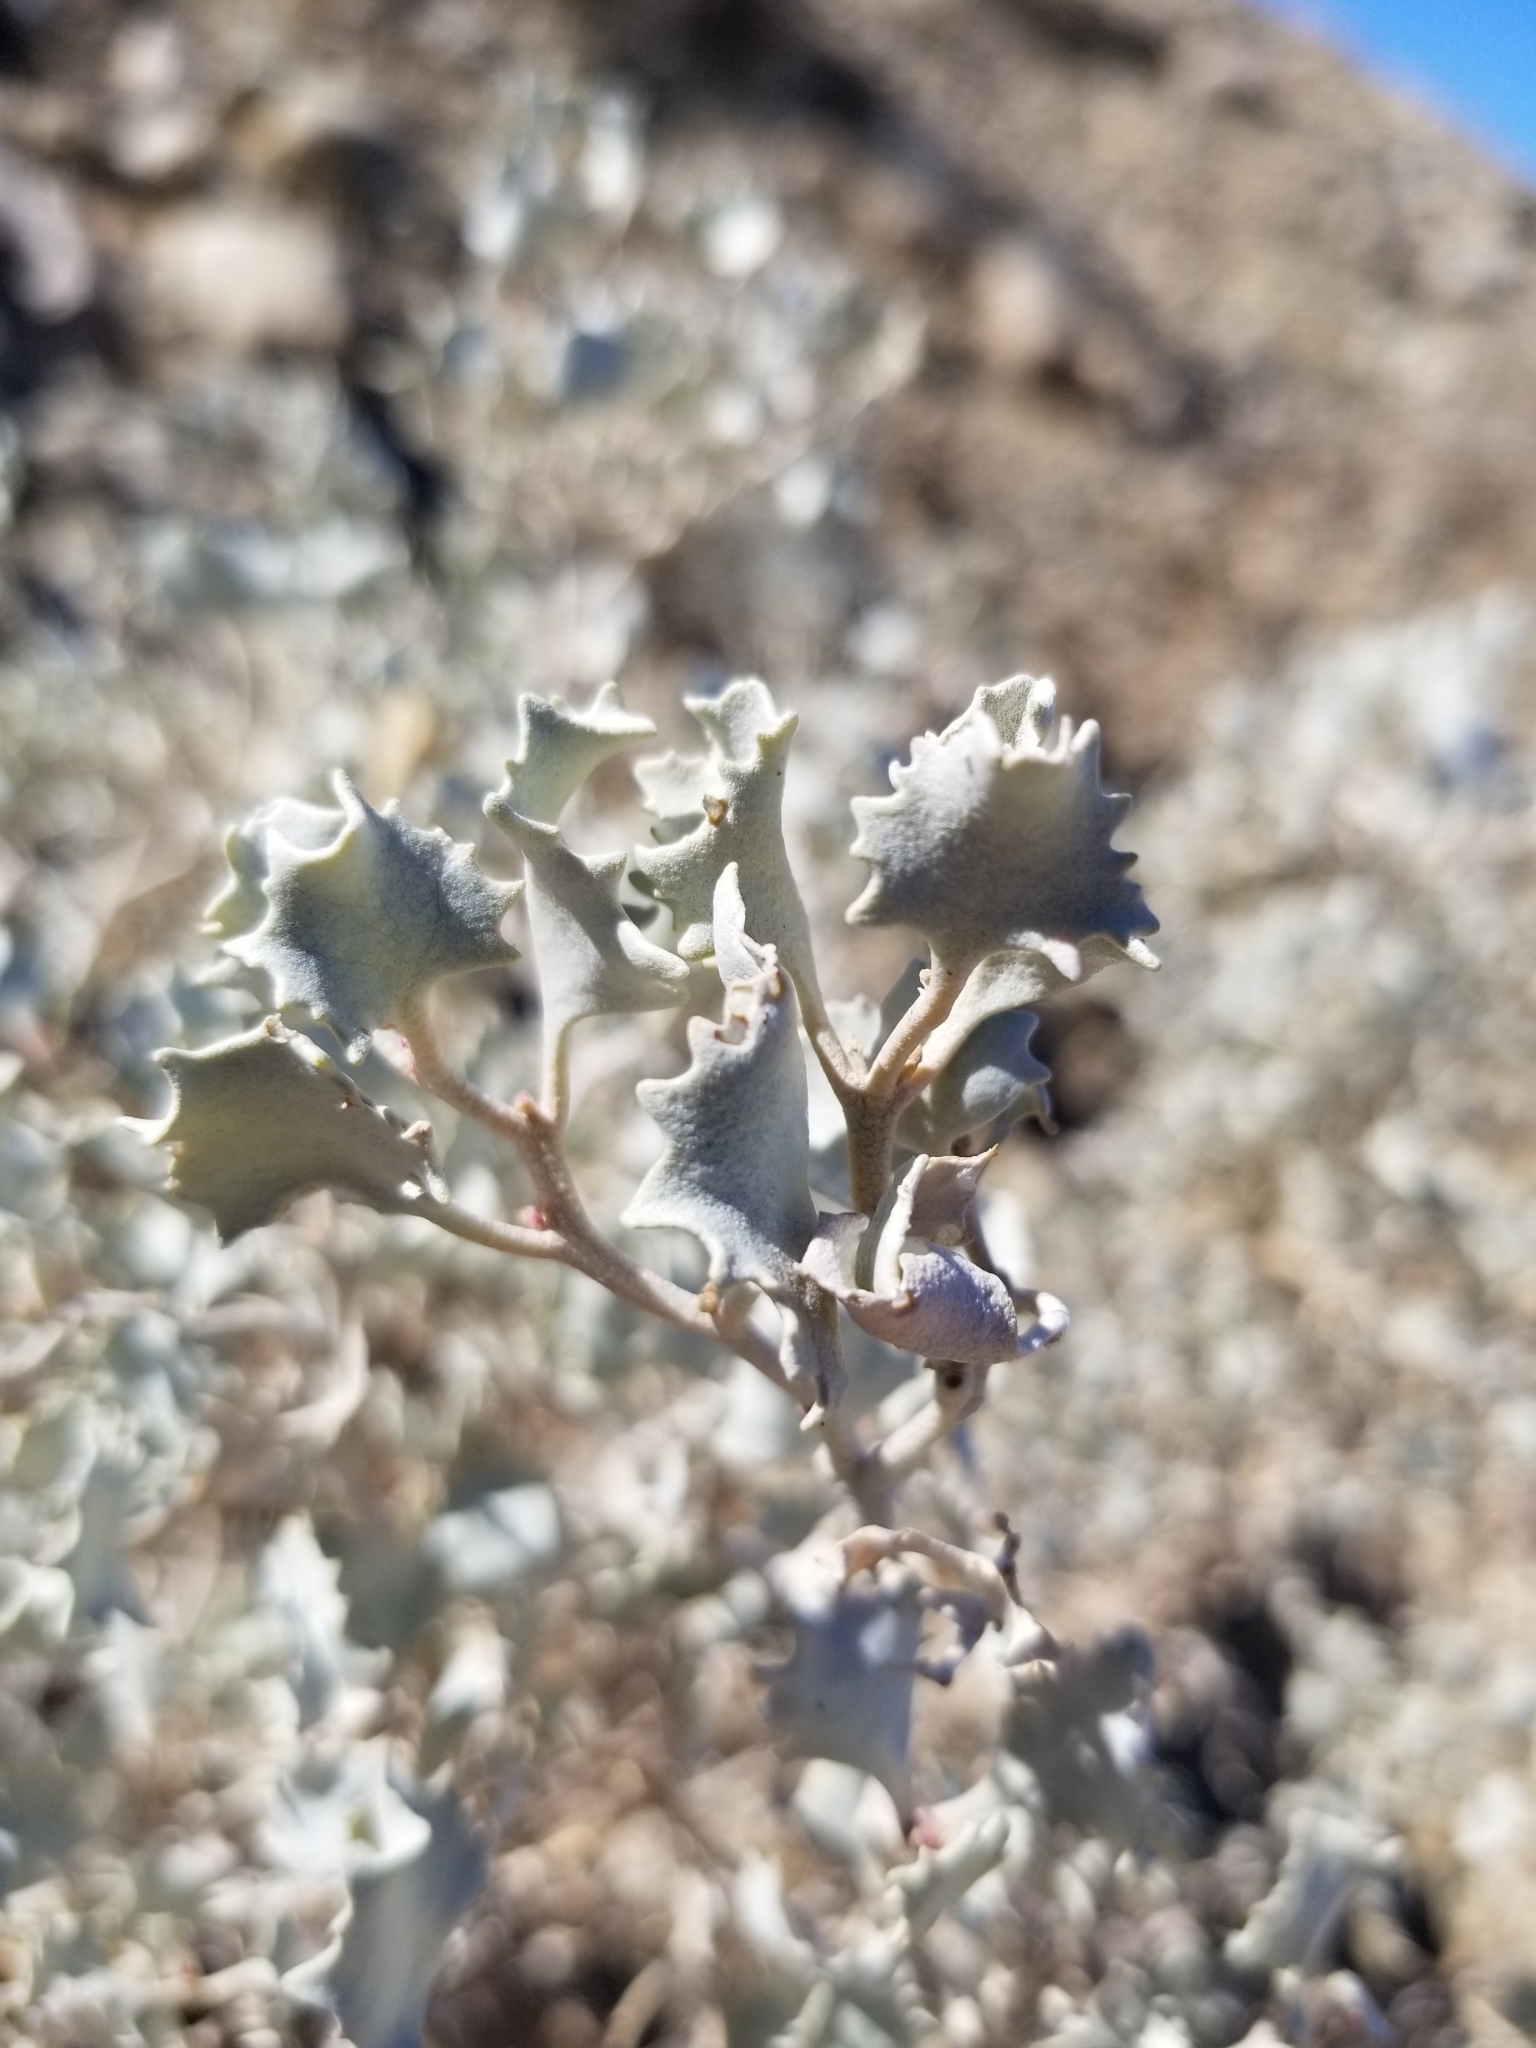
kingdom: Plantae
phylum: Tracheophyta
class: Magnoliopsida
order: Caryophyllales
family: Amaranthaceae
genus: Atriplex
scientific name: Atriplex hymenelytra
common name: Desert-holly
